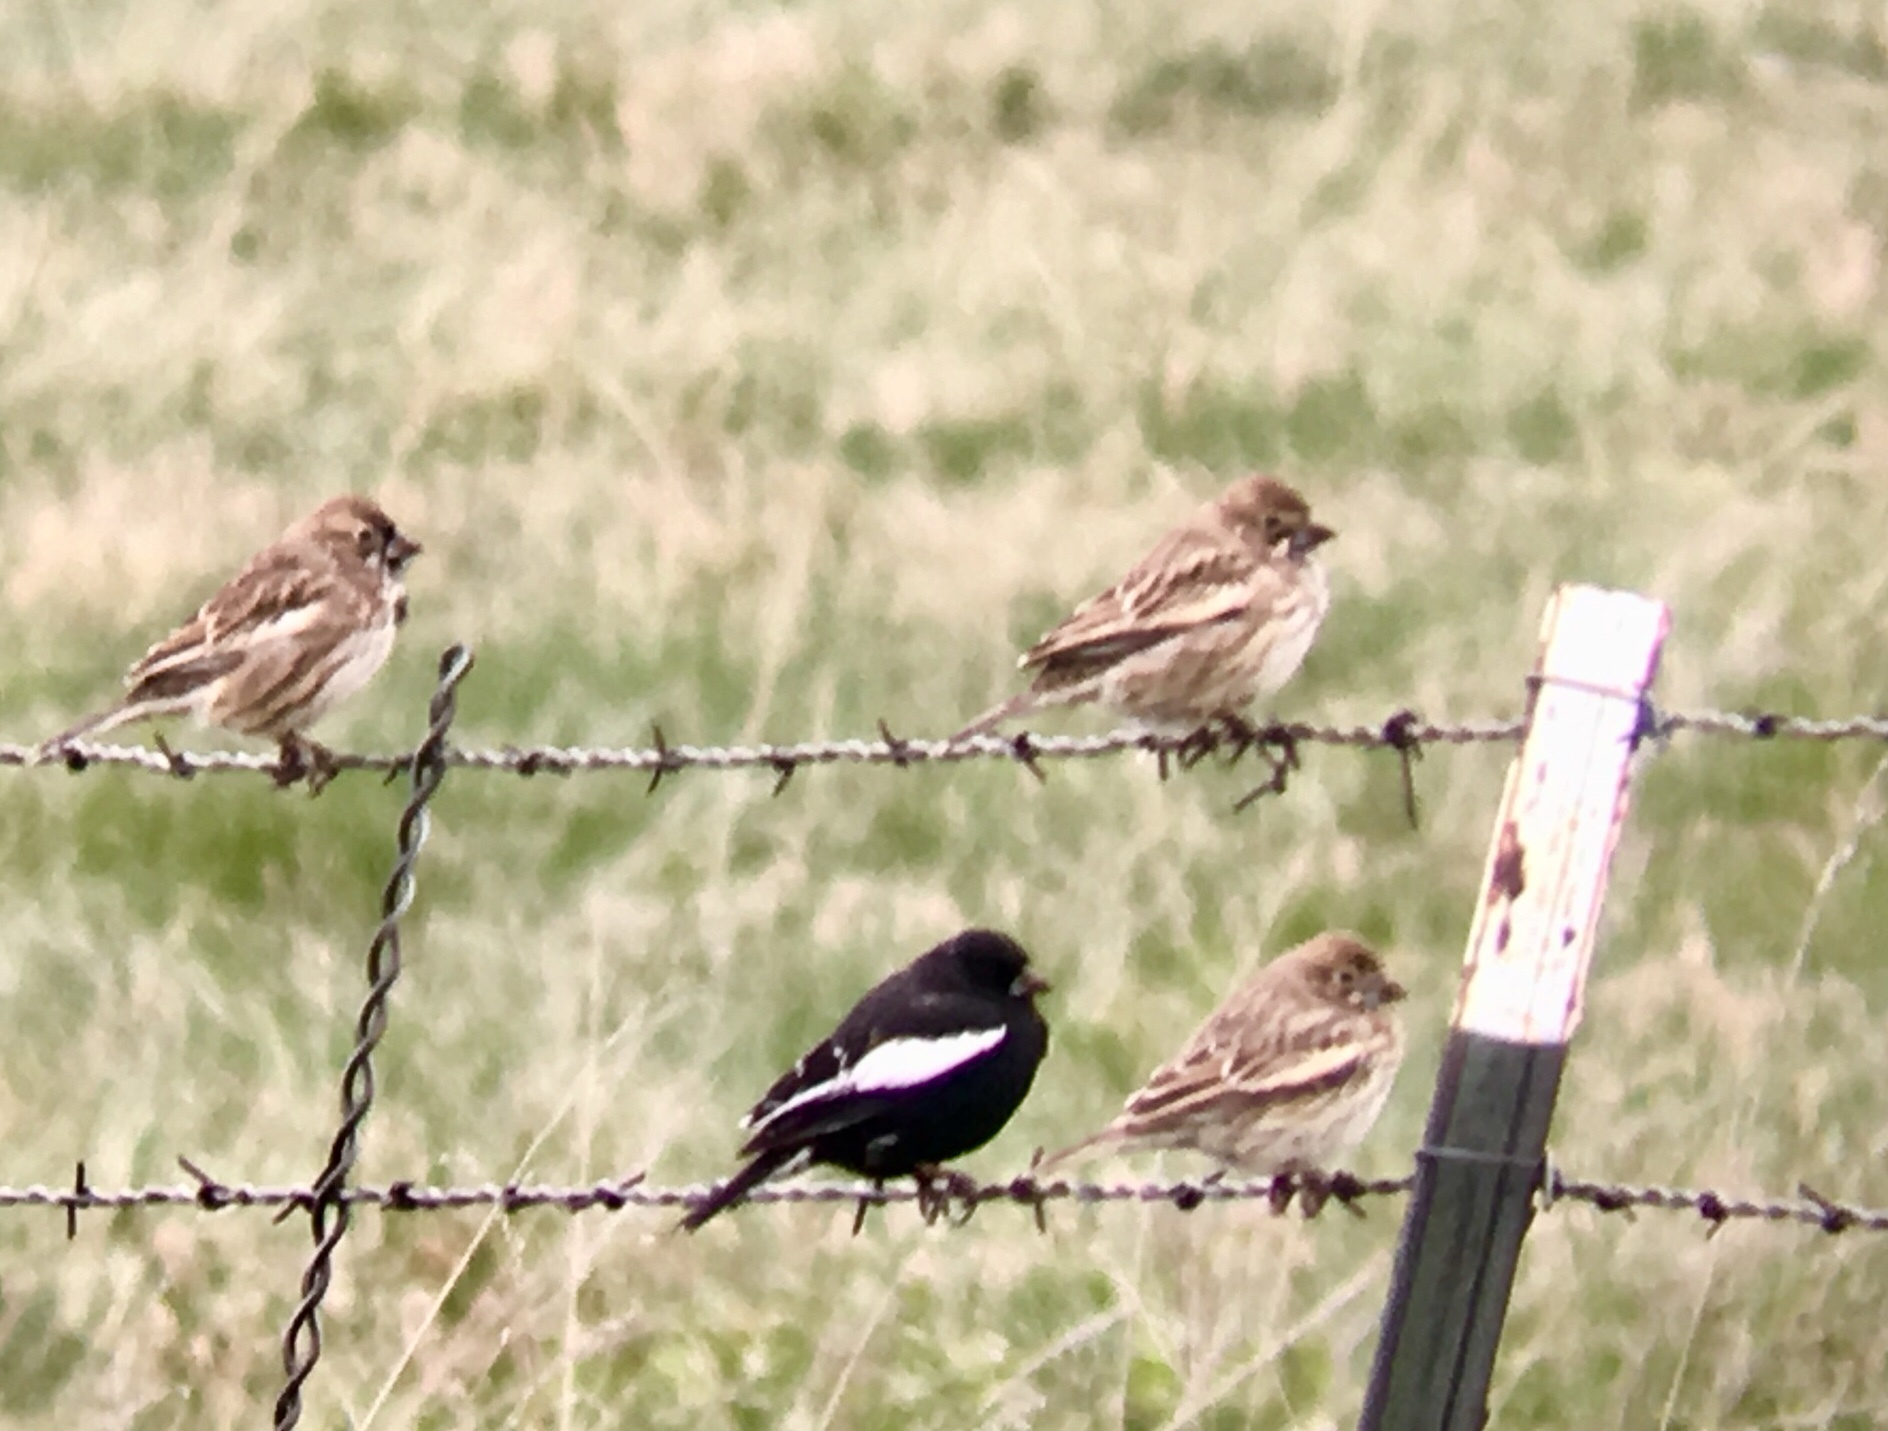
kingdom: Animalia
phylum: Chordata
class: Aves
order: Passeriformes
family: Passerellidae
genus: Calamospiza
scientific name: Calamospiza melanocorys
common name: Lark bunting
